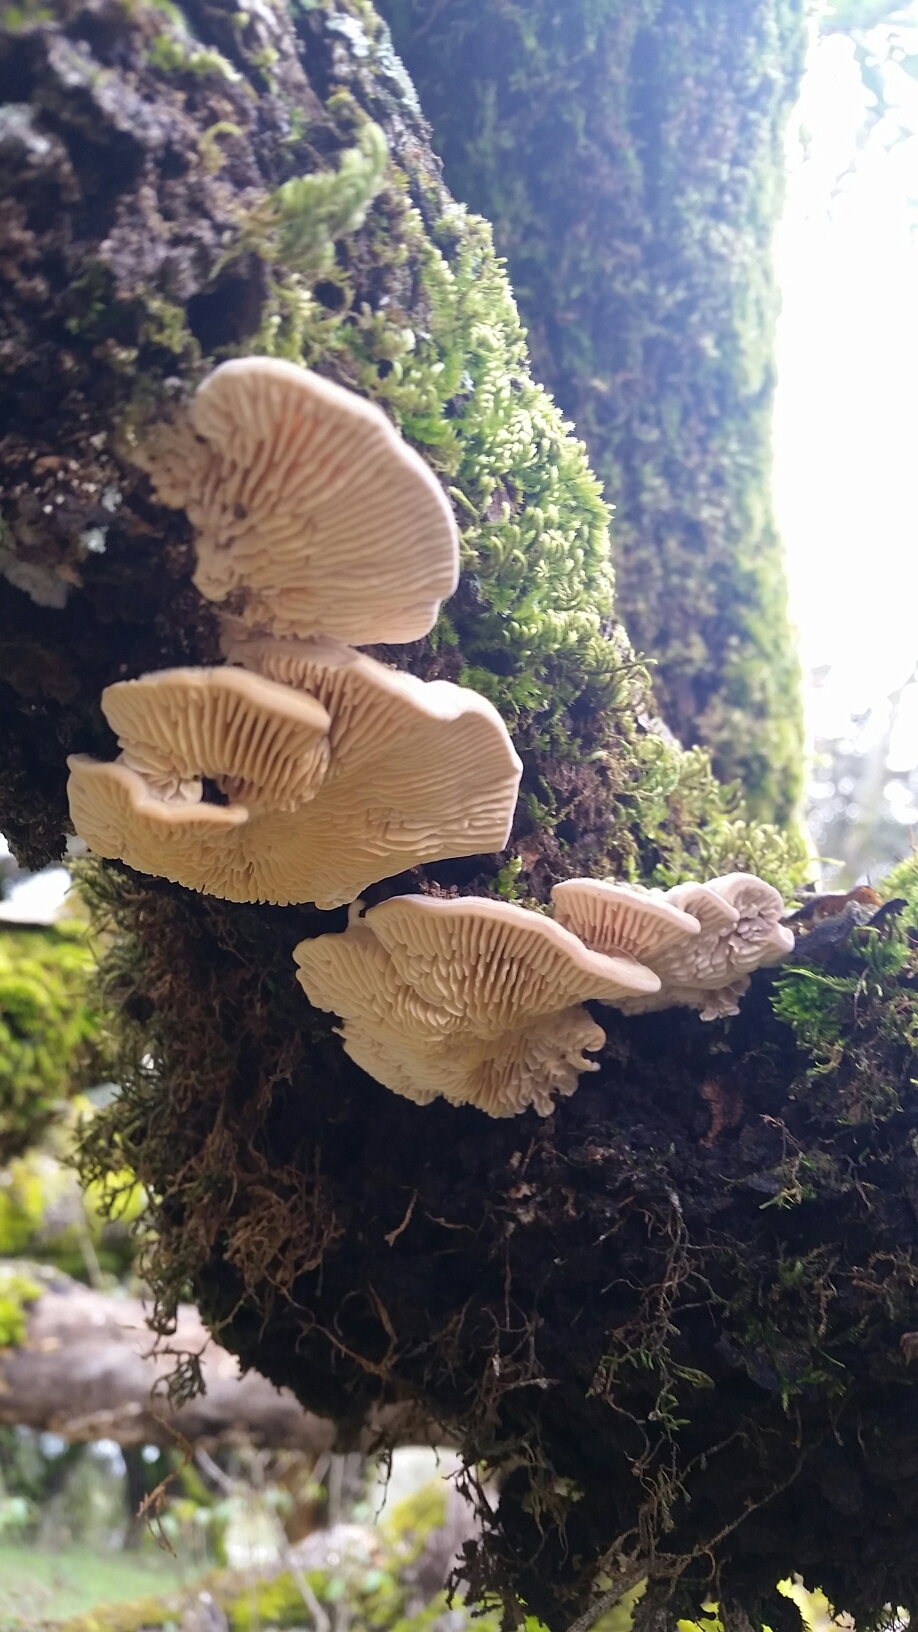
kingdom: Fungi
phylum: Basidiomycota
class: Agaricomycetes
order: Polyporales
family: Polyporaceae
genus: Lenzites
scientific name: Lenzites betulinus
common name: Birch mazegill
